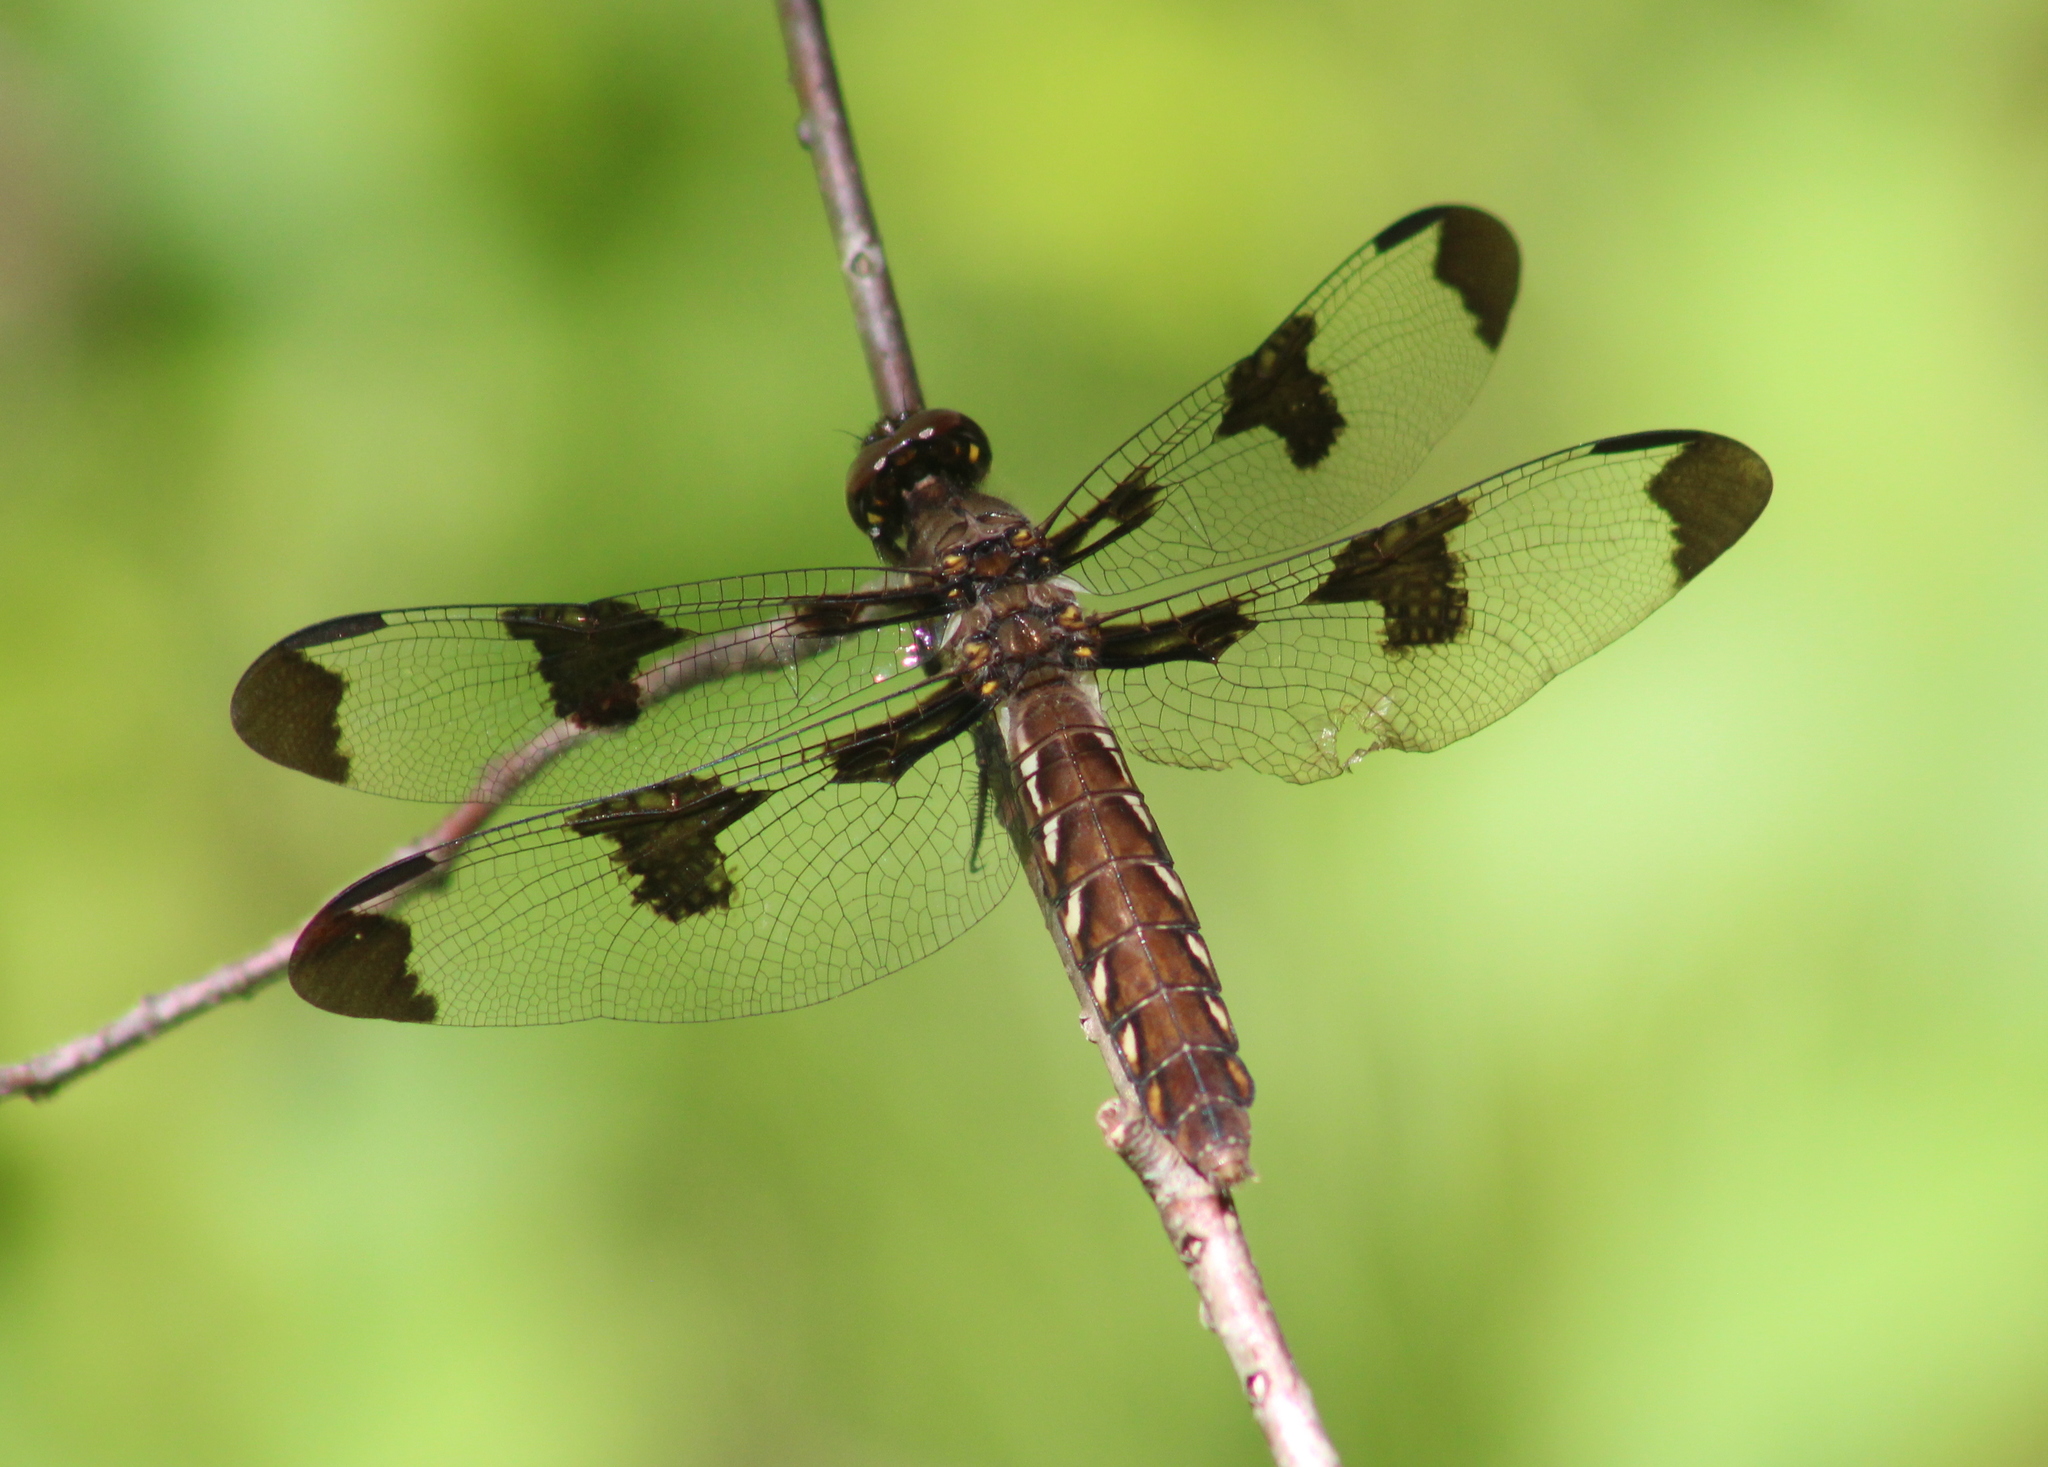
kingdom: Animalia
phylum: Arthropoda
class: Insecta
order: Odonata
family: Libellulidae
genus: Plathemis
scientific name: Plathemis lydia
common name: Common whitetail
